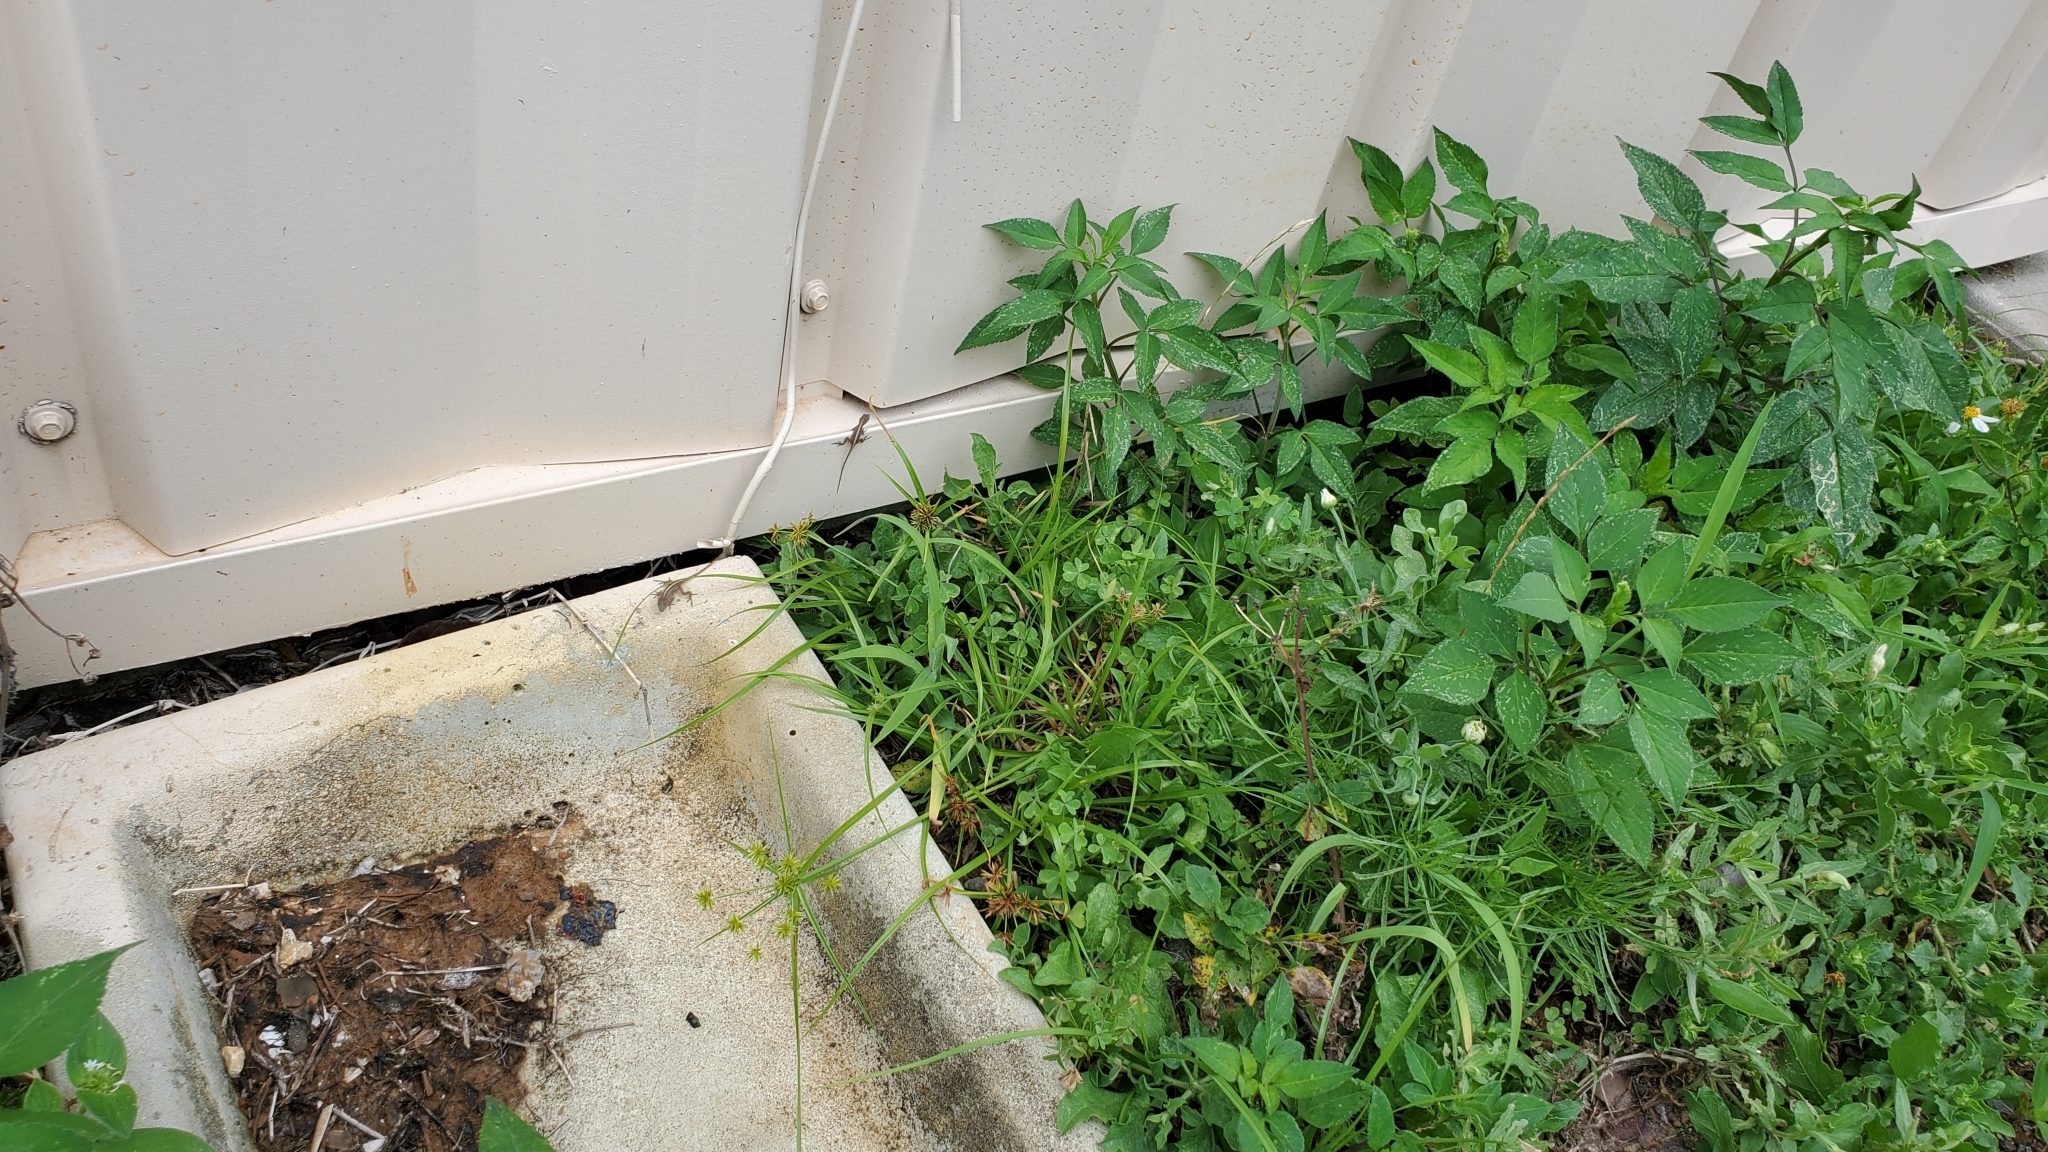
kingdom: Animalia
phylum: Chordata
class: Squamata
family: Dactyloidae
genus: Anolis
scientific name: Anolis sagrei
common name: Brown anole
